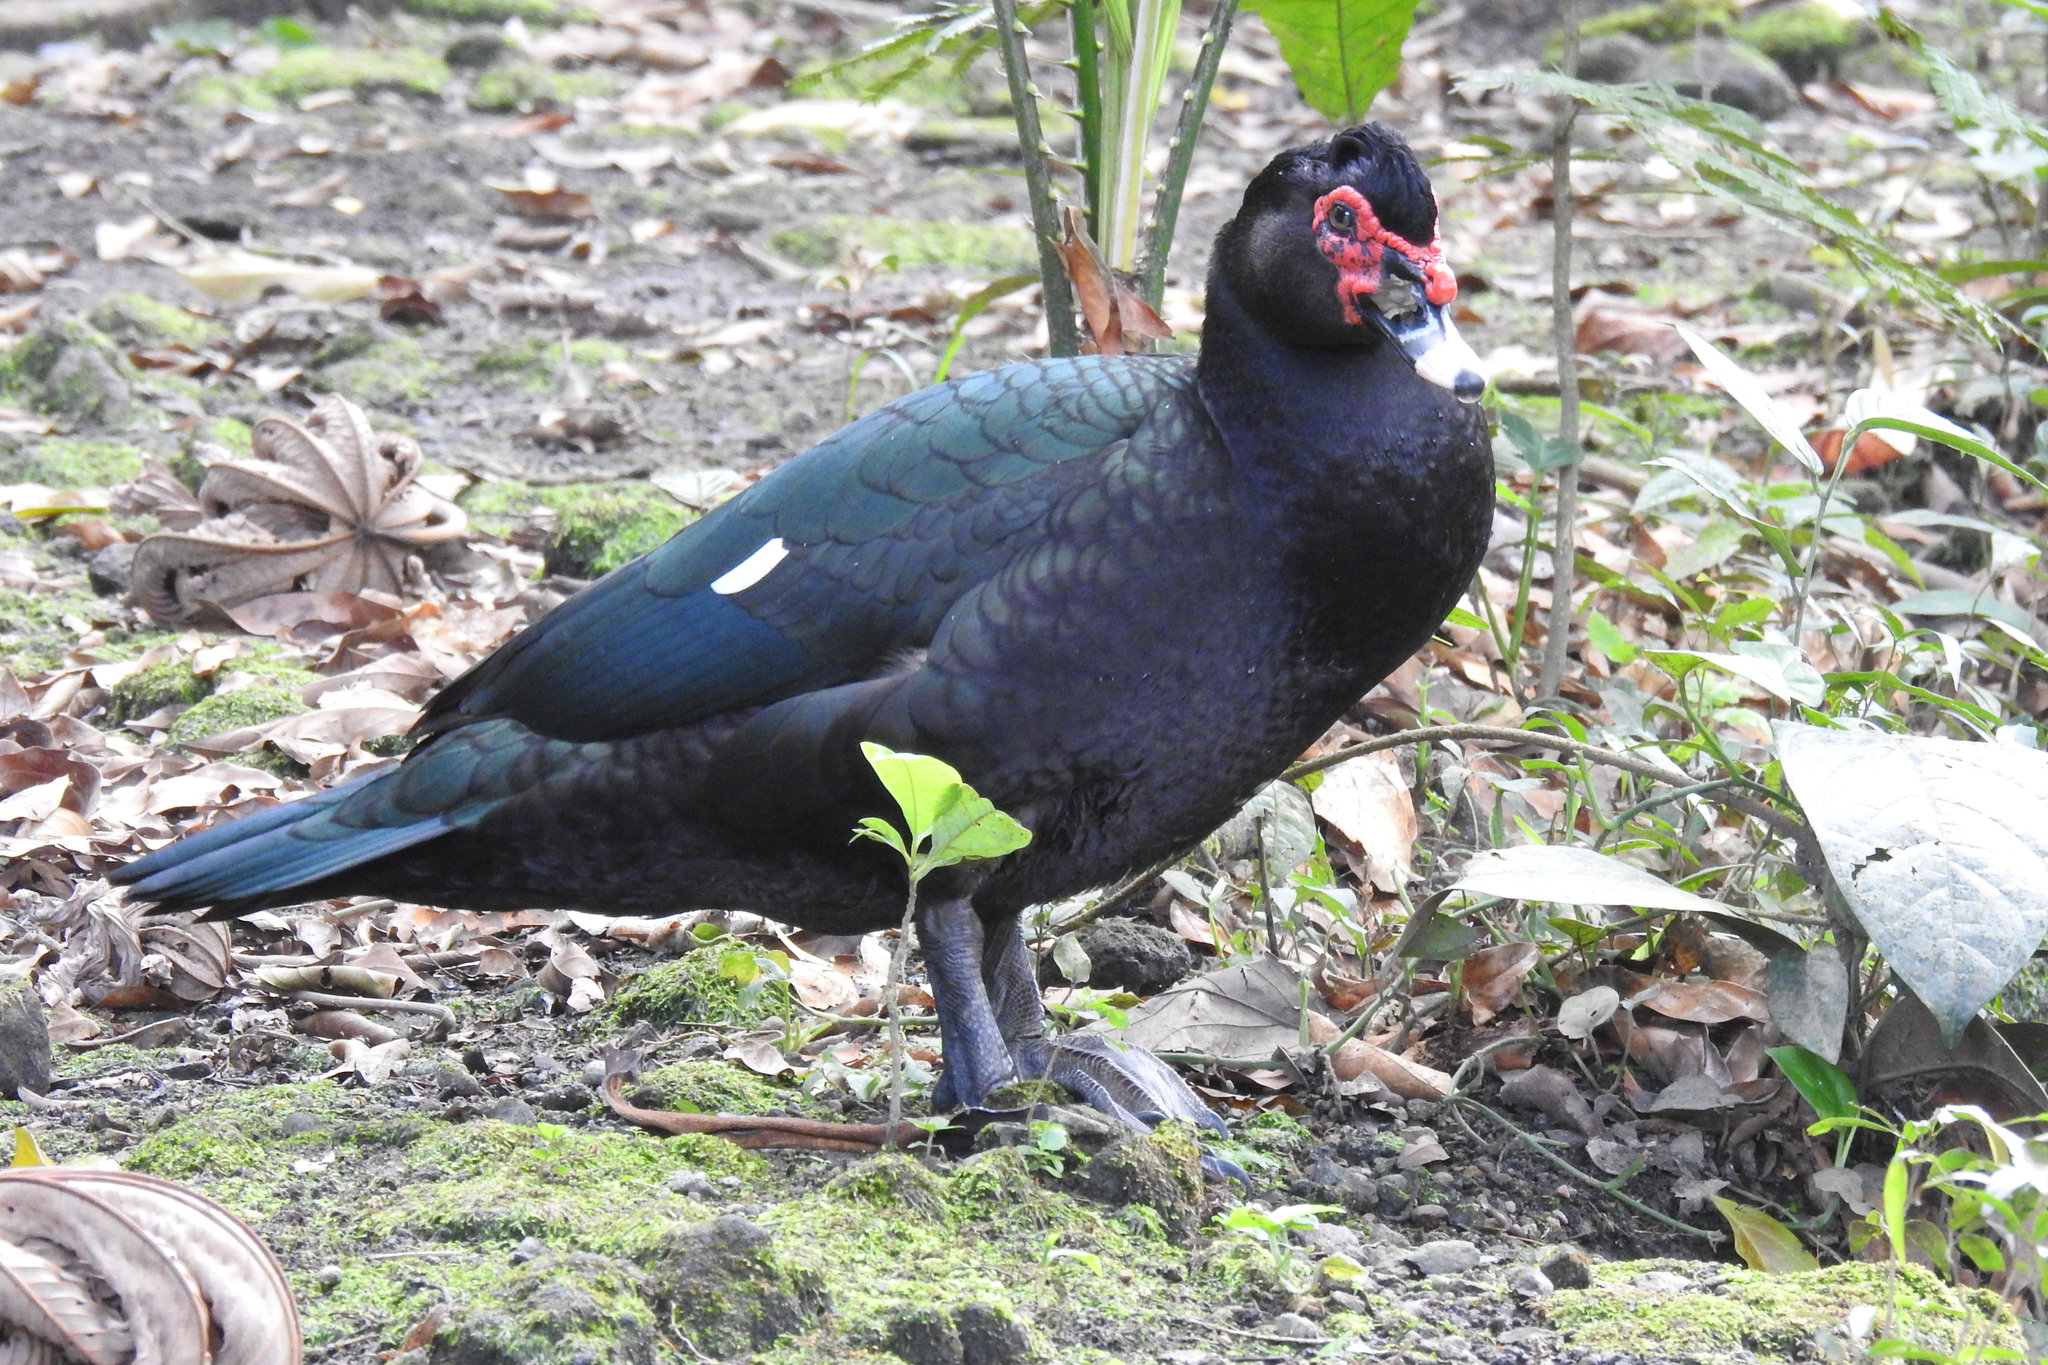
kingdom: Animalia
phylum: Chordata
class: Aves
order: Anseriformes
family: Anatidae
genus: Cairina
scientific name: Cairina moschata
